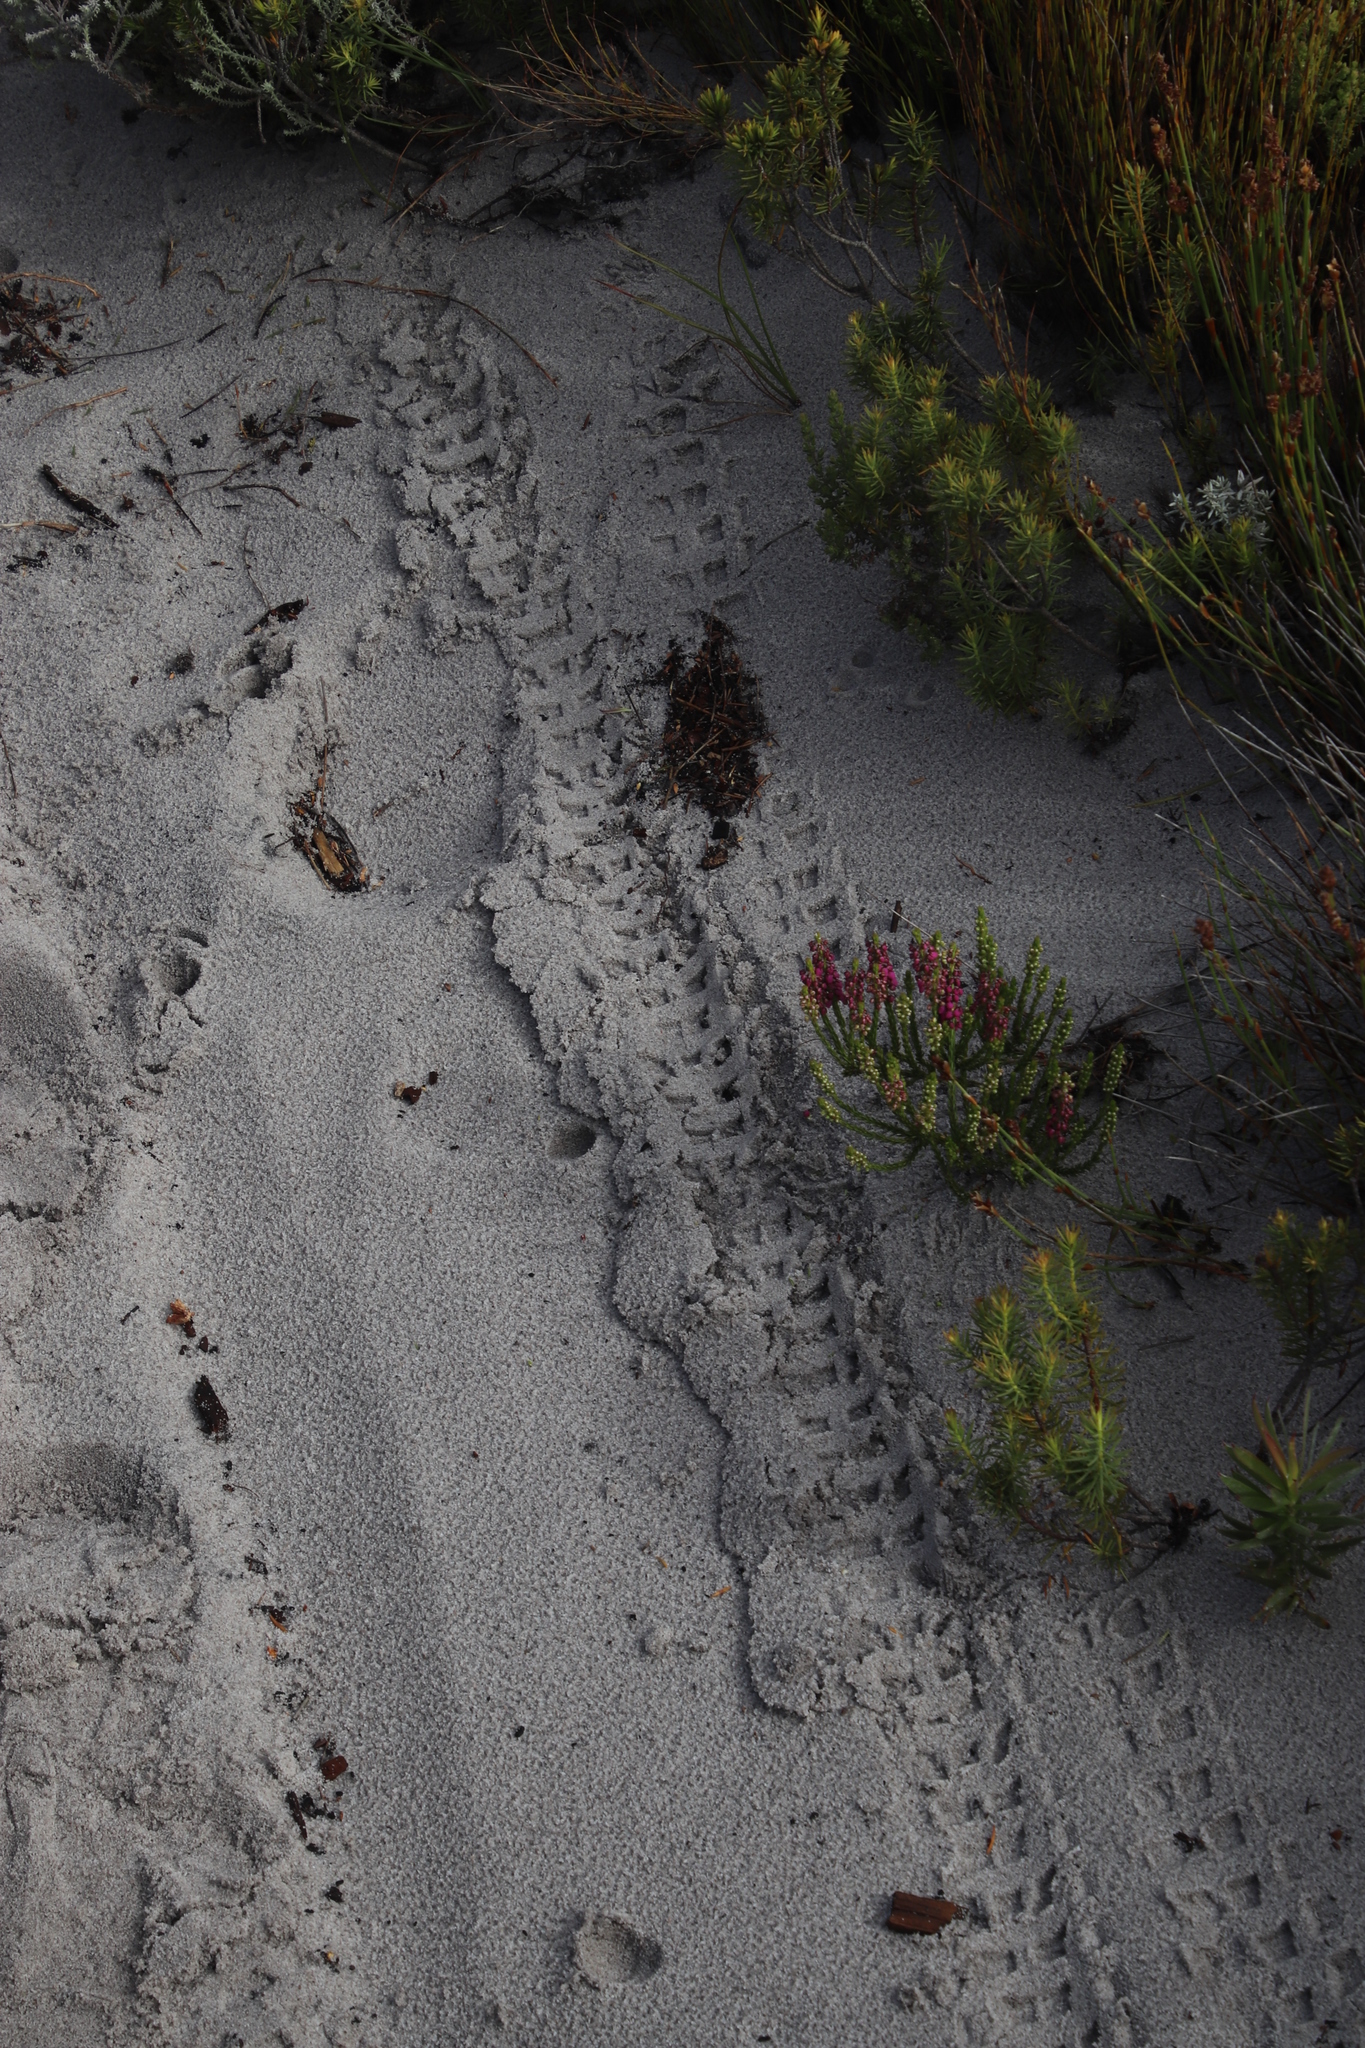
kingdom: Plantae
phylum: Tracheophyta
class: Magnoliopsida
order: Ericales
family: Ericaceae
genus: Erica
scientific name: Erica pulchella
